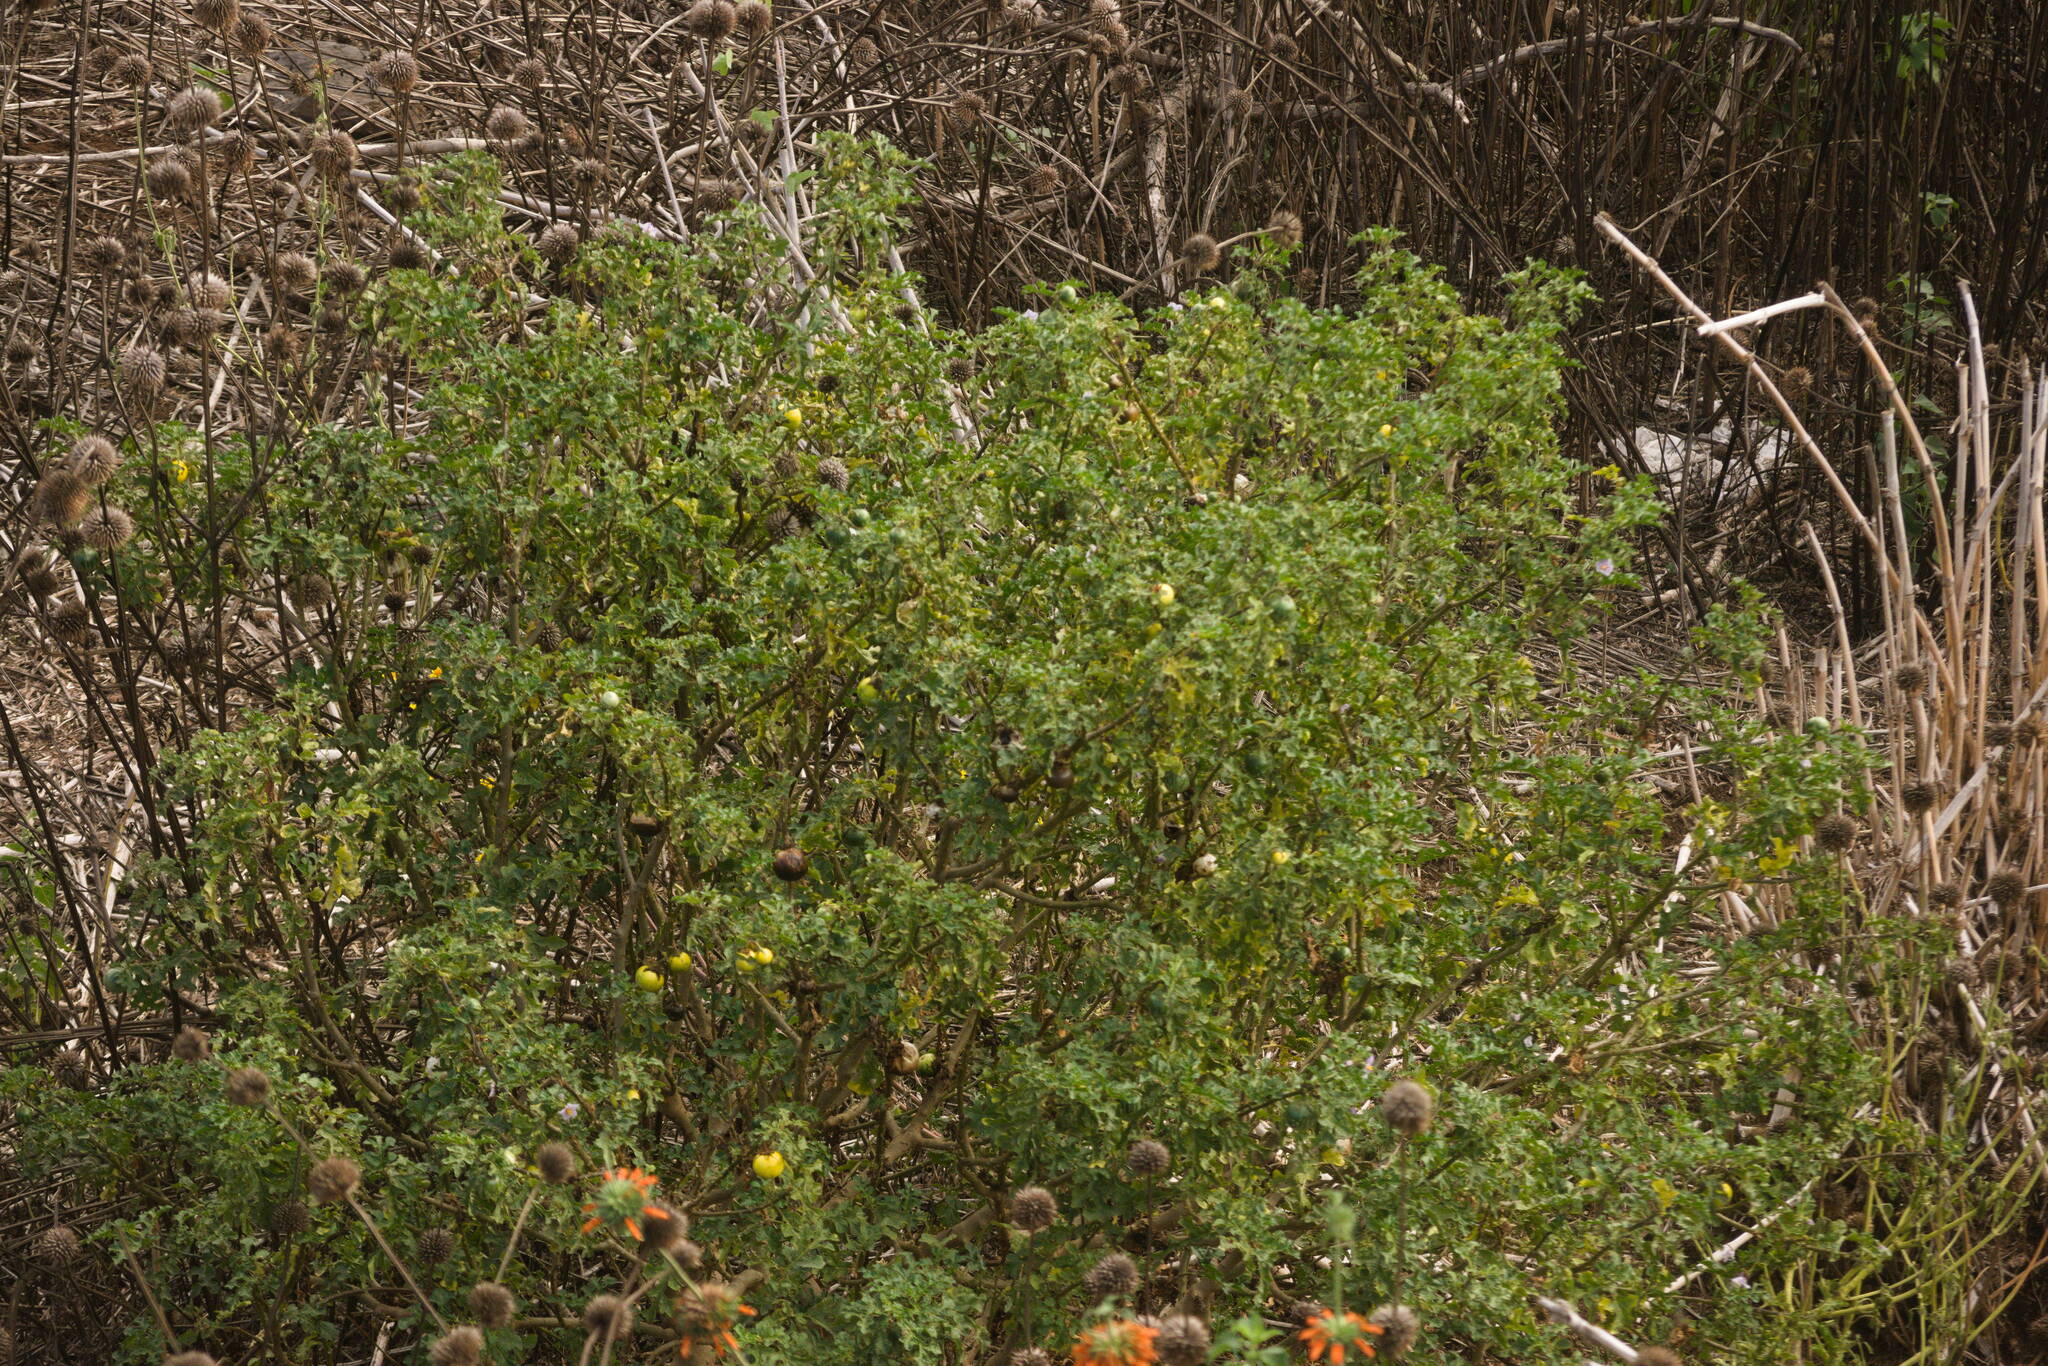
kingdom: Plantae
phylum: Tracheophyta
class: Magnoliopsida
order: Solanales
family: Solanaceae
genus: Solanum
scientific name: Solanum linnaeanum
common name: Nightshade
